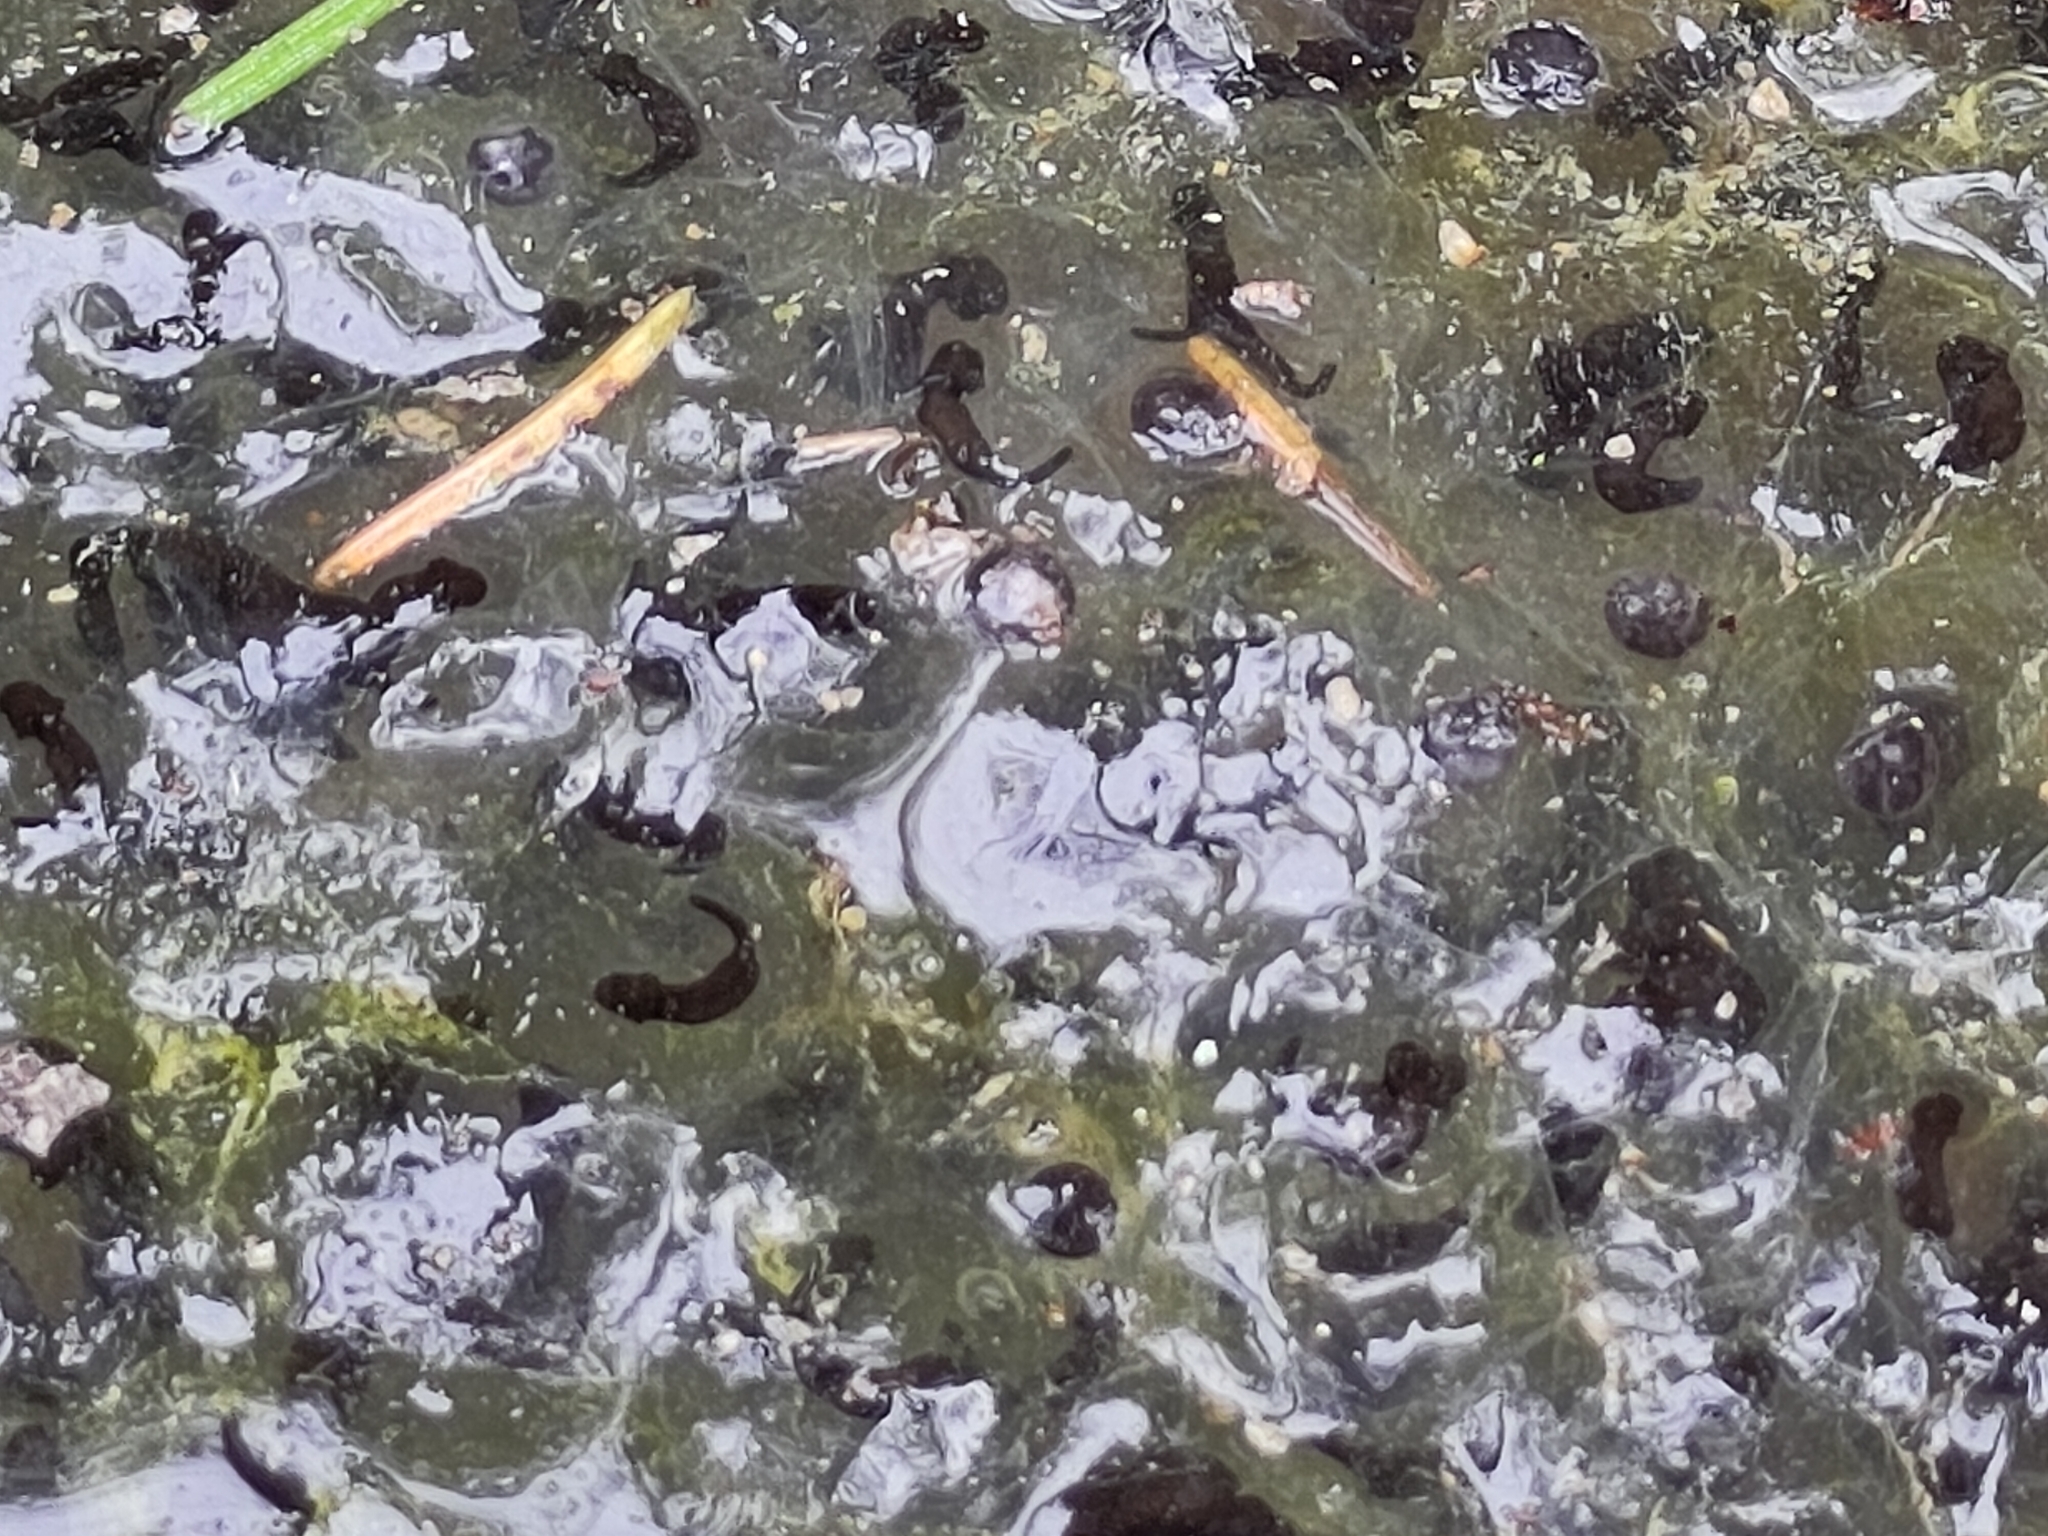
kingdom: Animalia
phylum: Chordata
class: Amphibia
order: Anura
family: Ranidae
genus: Rana
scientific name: Rana temporaria
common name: Common frog
